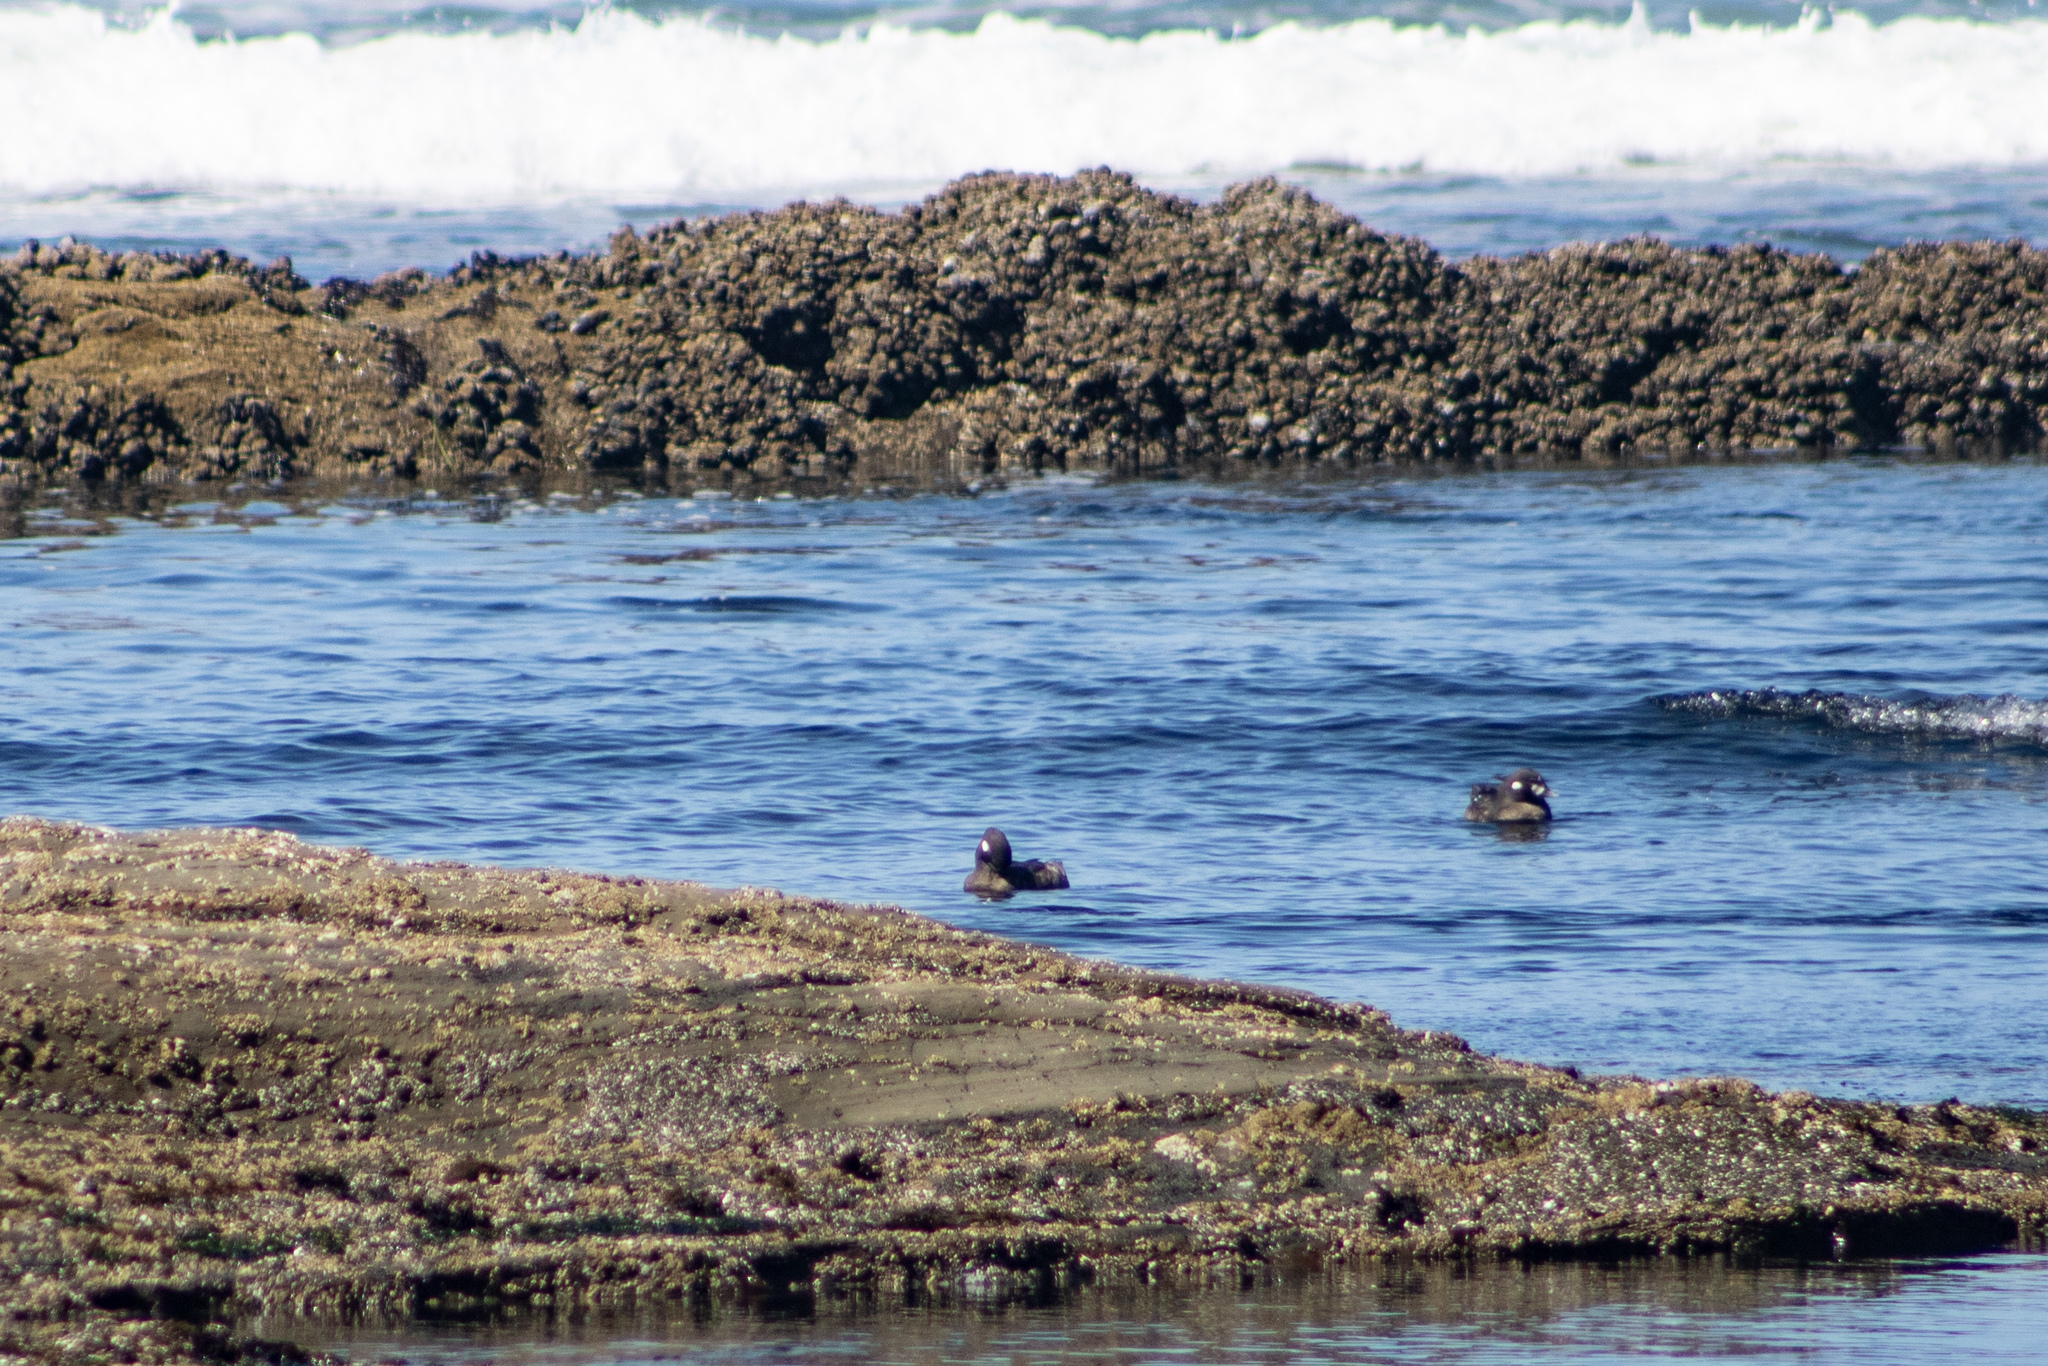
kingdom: Animalia
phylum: Chordata
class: Aves
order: Anseriformes
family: Anatidae
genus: Histrionicus
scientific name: Histrionicus histrionicus
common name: Harlequin duck
